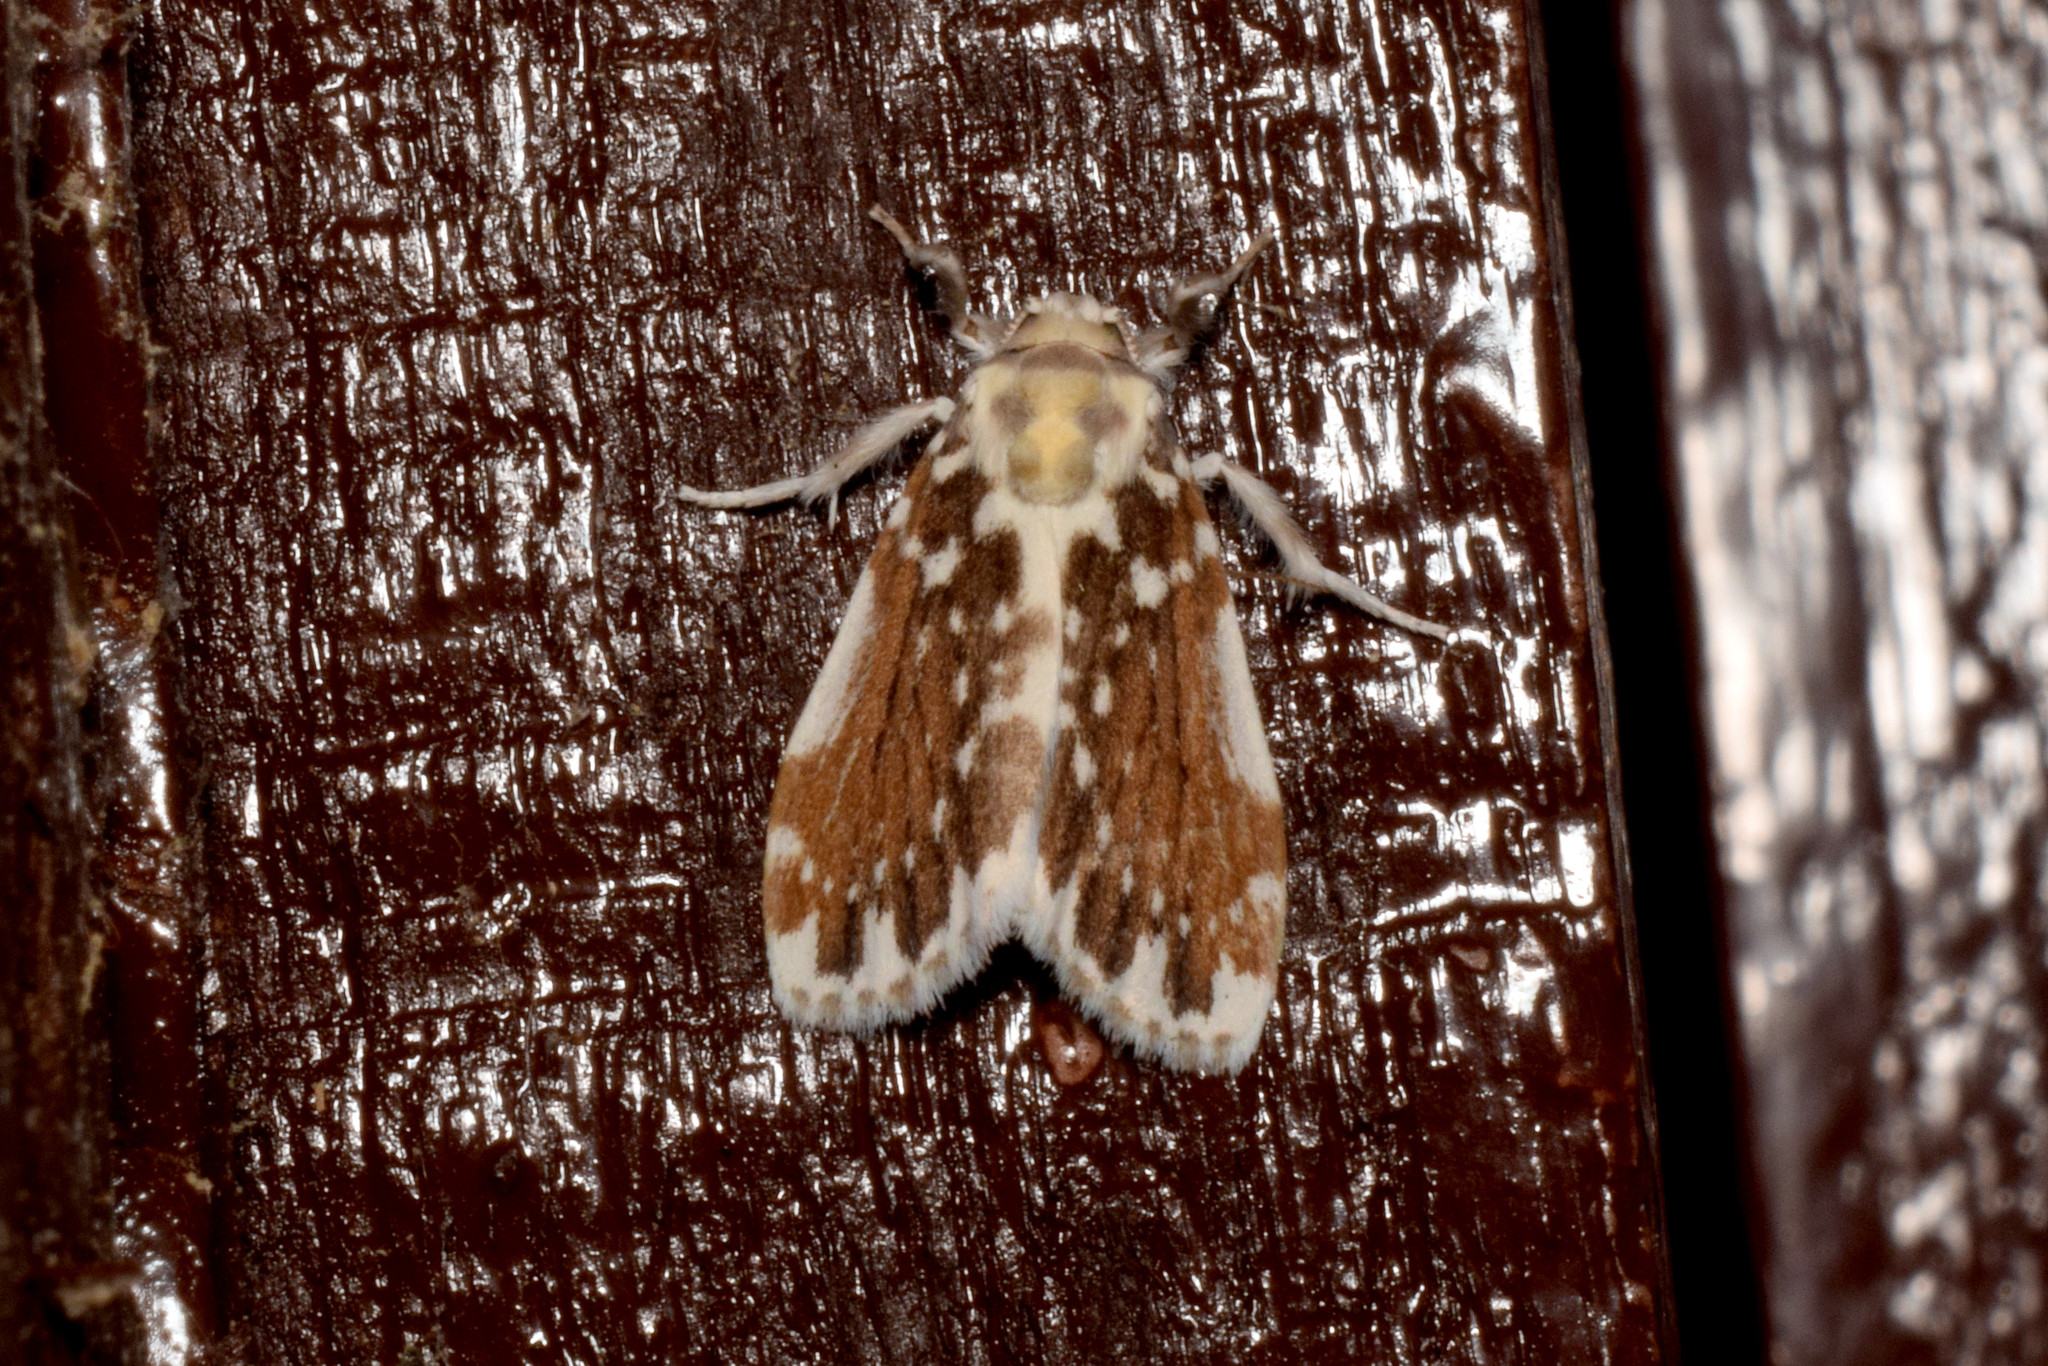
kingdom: Animalia
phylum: Arthropoda
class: Insecta
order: Lepidoptera
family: Erebidae
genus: Pseudoadites
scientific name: Pseudoadites frigida
